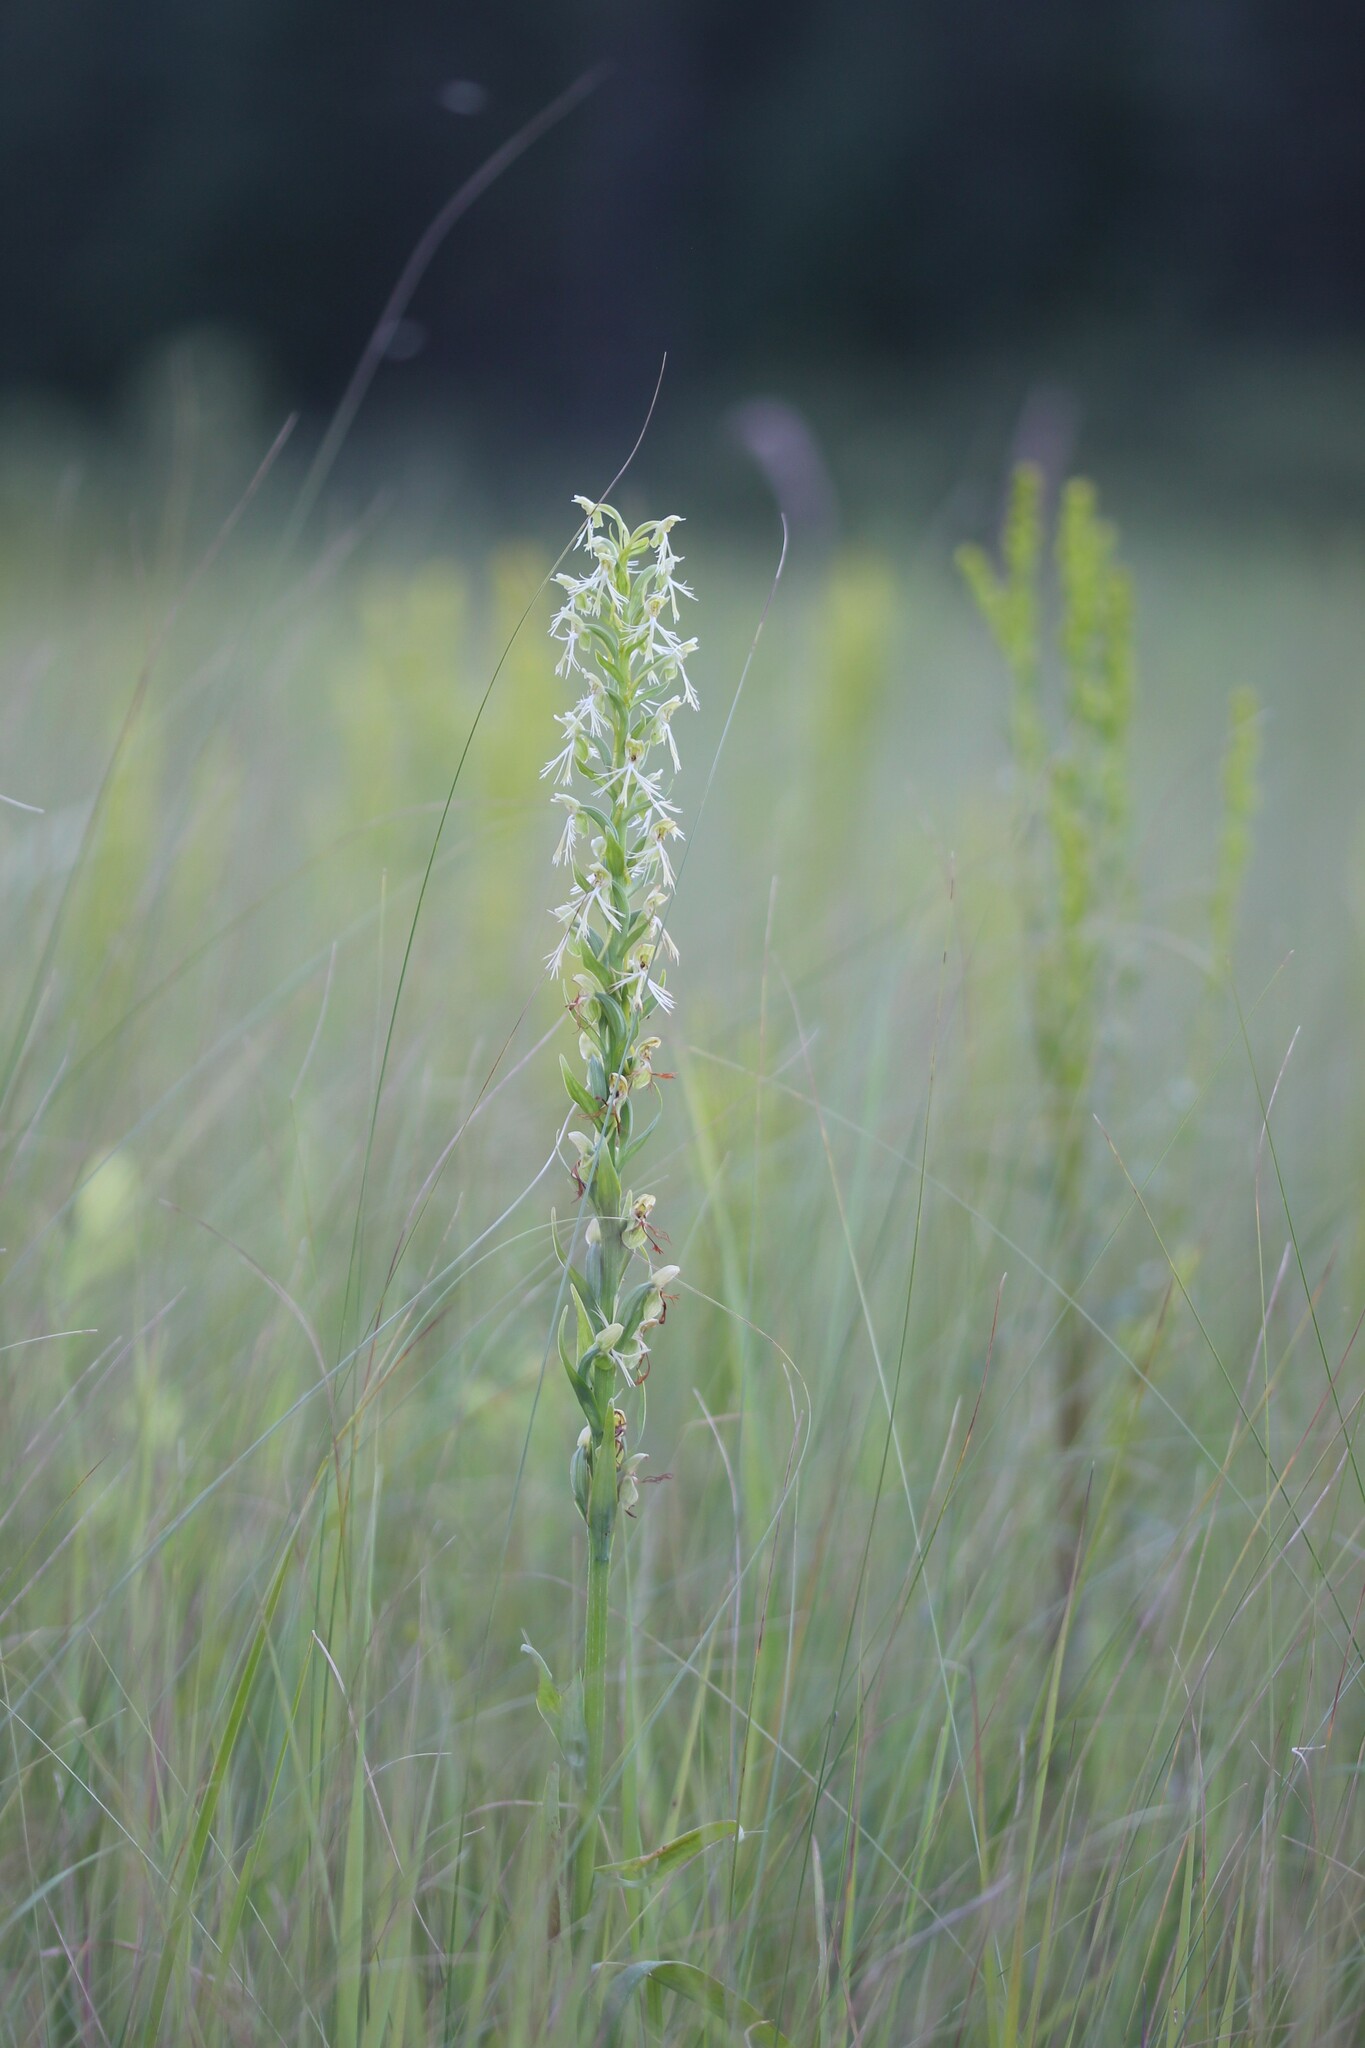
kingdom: Plantae
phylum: Tracheophyta
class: Liliopsida
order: Asparagales
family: Orchidaceae
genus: Platanthera
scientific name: Platanthera lacera
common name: Green fringed orchid
